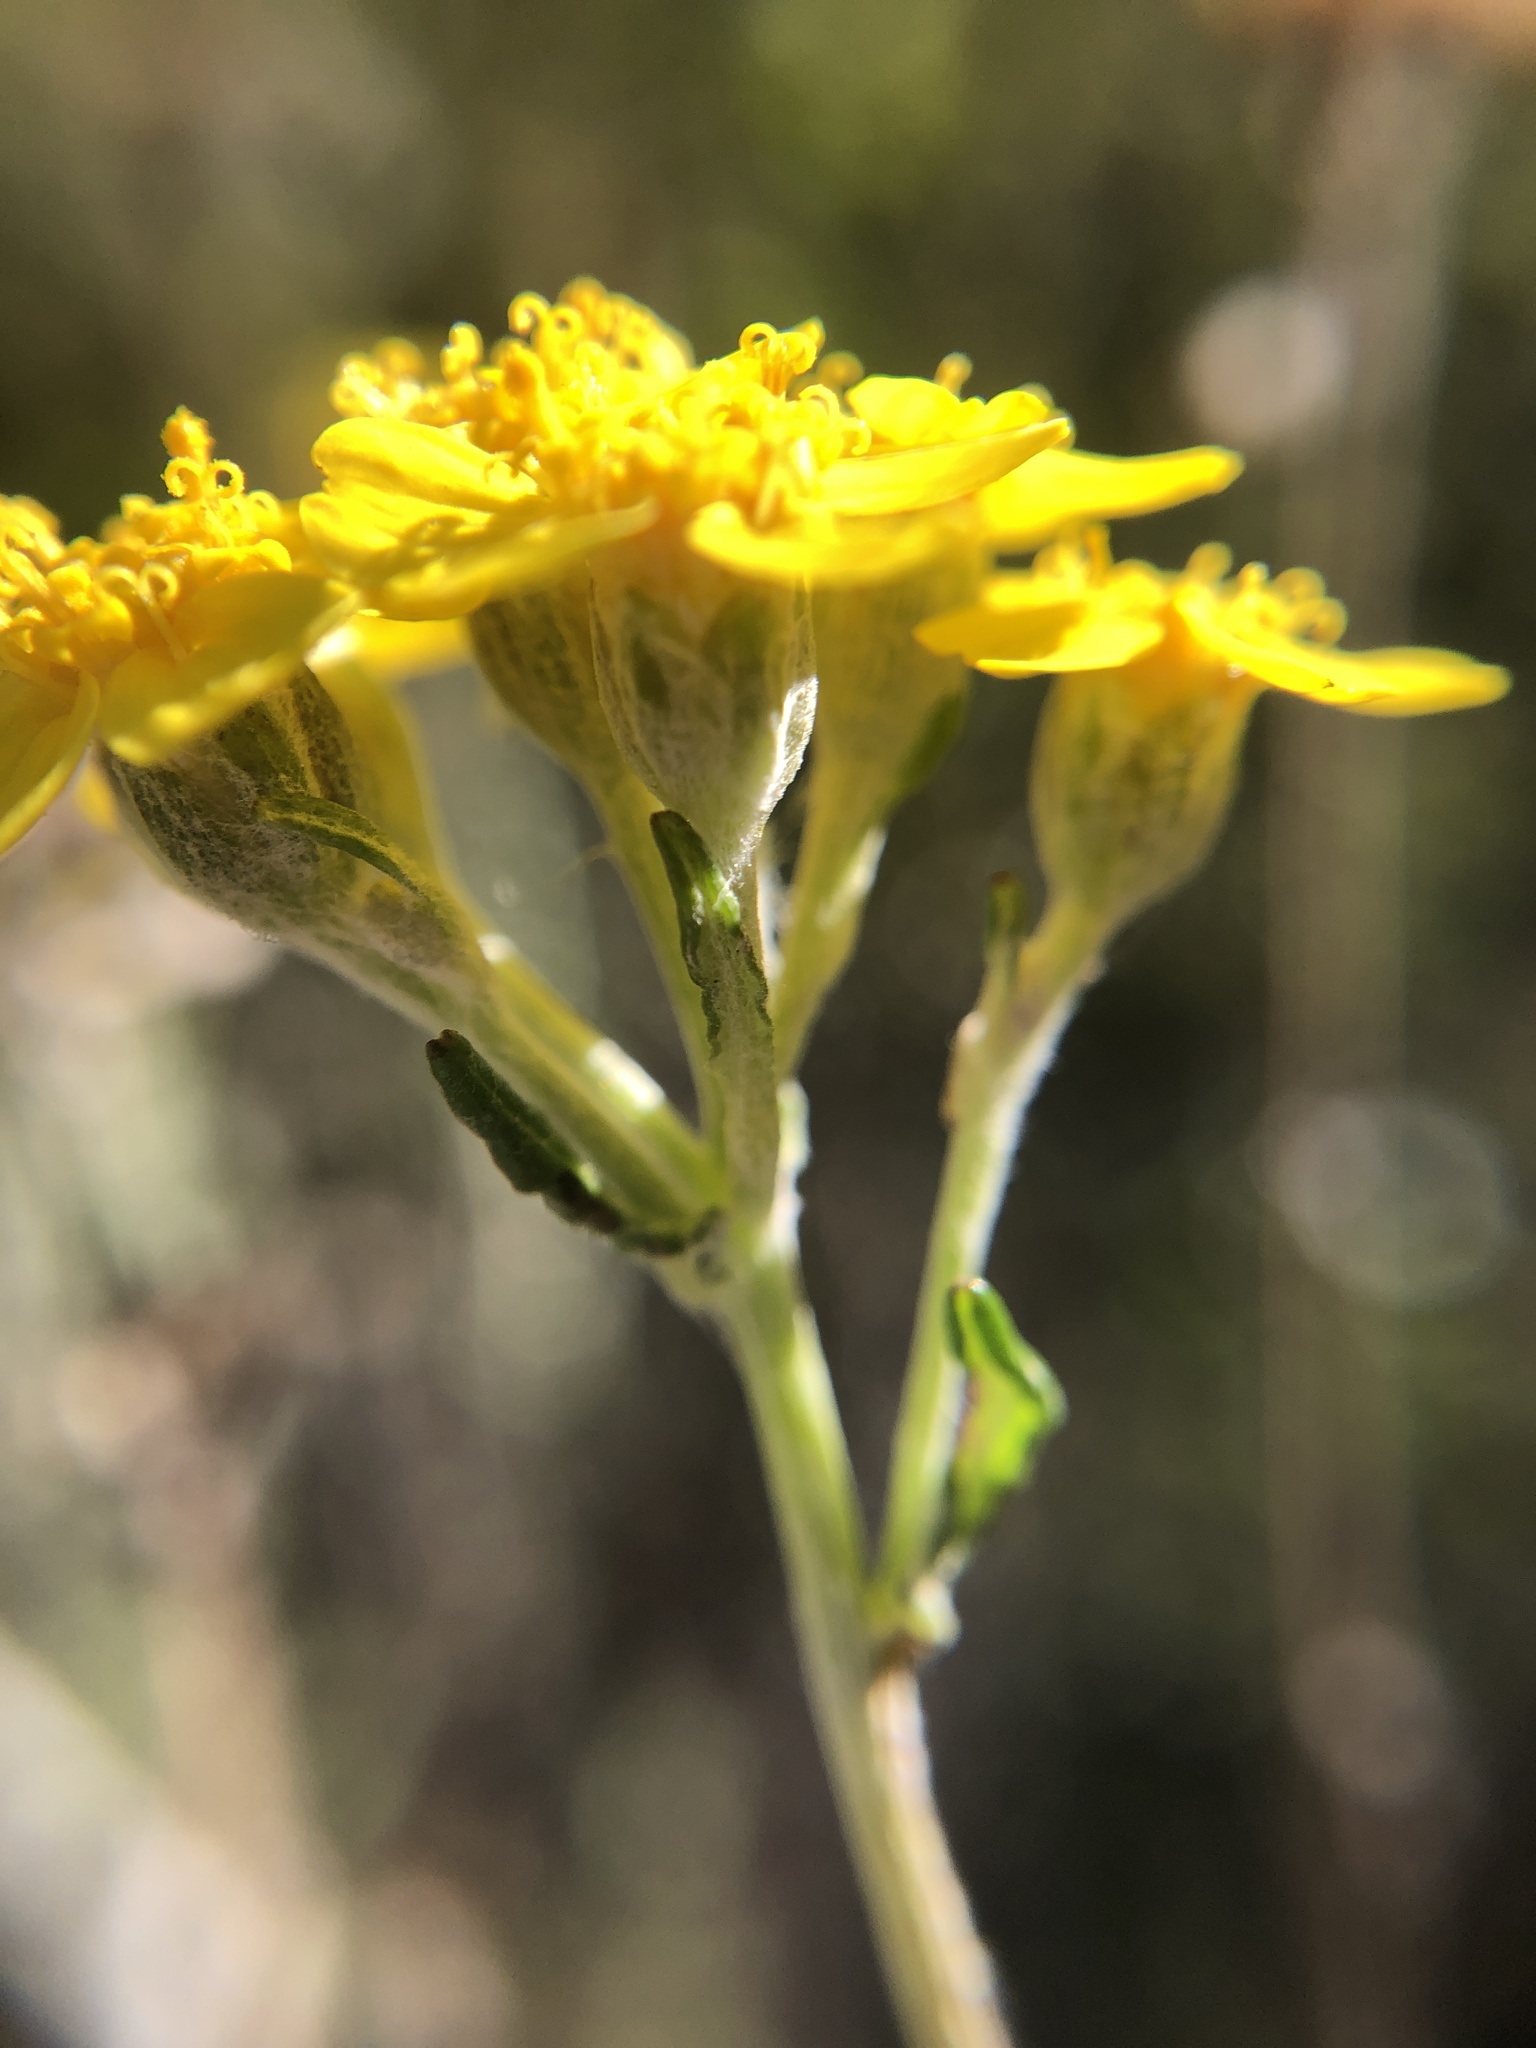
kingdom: Plantae
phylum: Tracheophyta
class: Magnoliopsida
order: Asterales
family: Asteraceae
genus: Eriophyllum
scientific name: Eriophyllum confertiflorum
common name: Golden-yarrow
